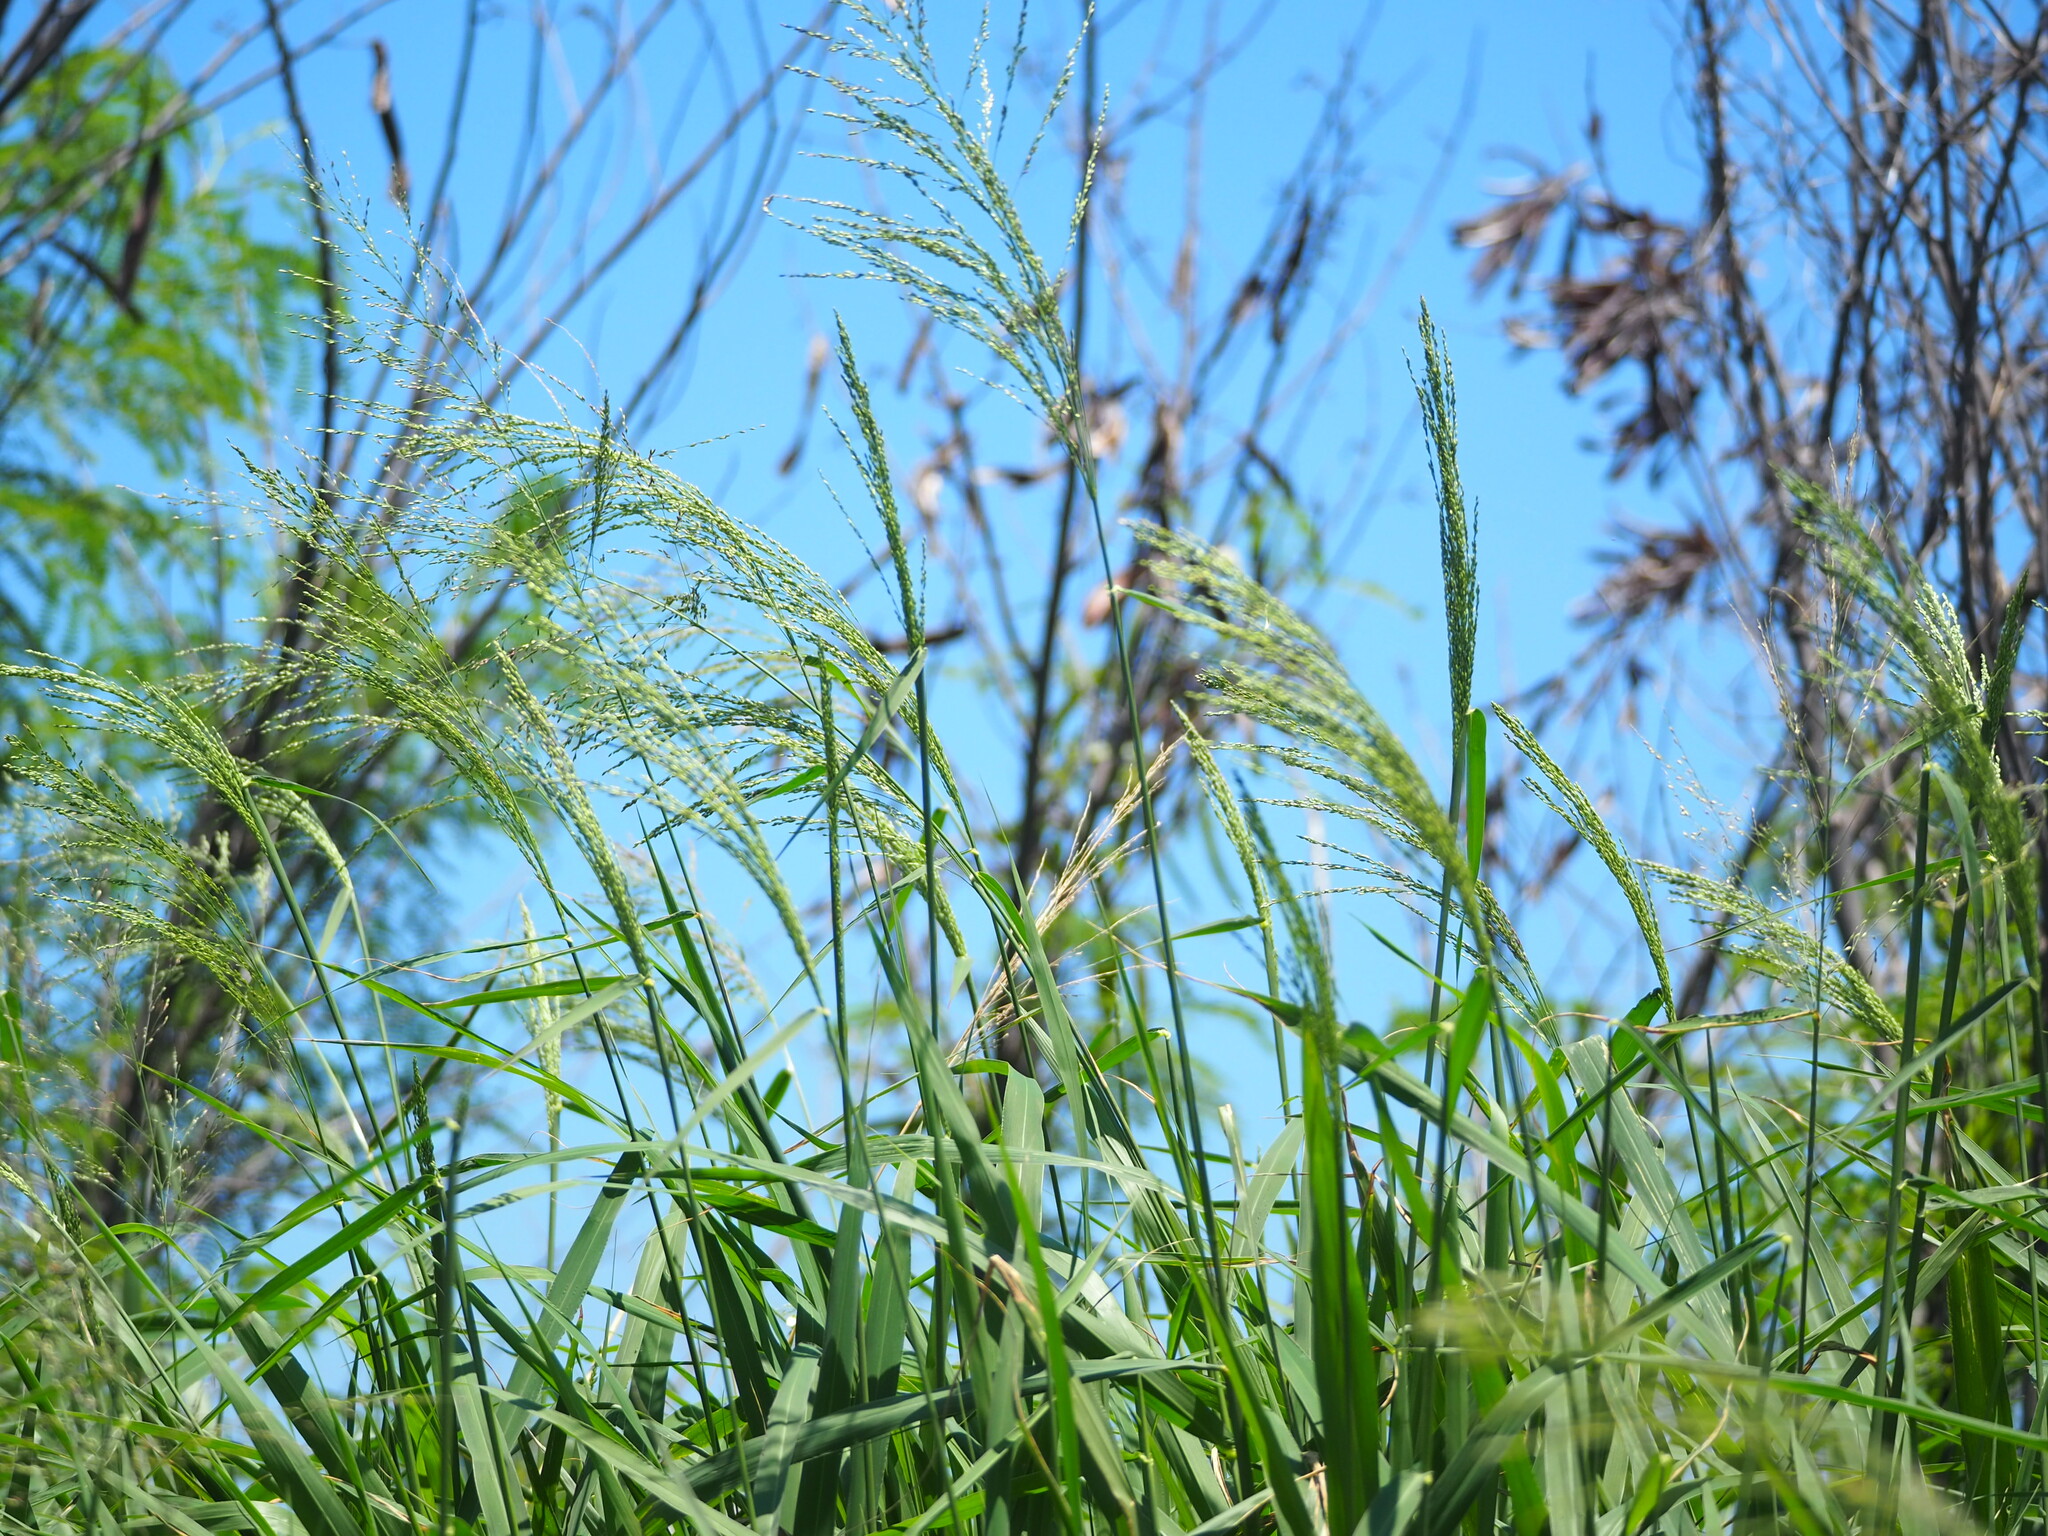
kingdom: Plantae
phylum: Tracheophyta
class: Liliopsida
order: Poales
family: Poaceae
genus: Megathyrsus
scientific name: Megathyrsus maximus
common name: Guineagrass
